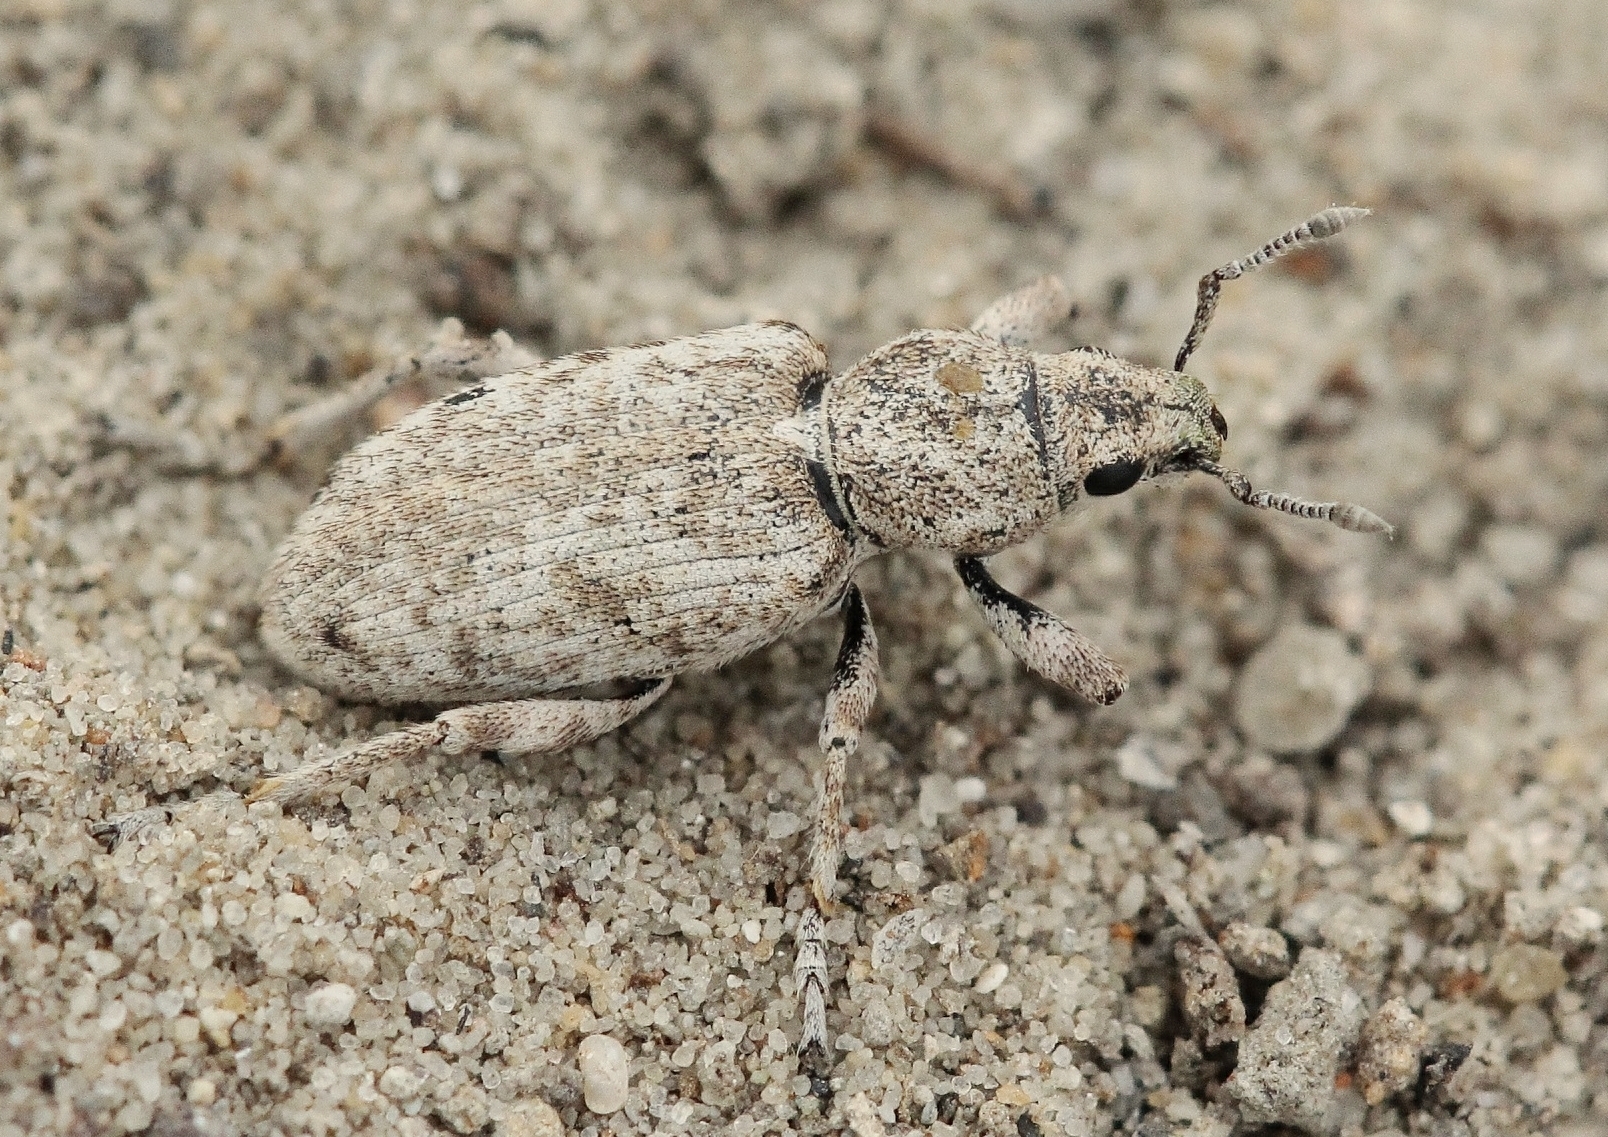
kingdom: Animalia
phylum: Arthropoda
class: Insecta
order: Coleoptera
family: Curculionidae
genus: Phacephorus
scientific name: Phacephorus argyrostomus
